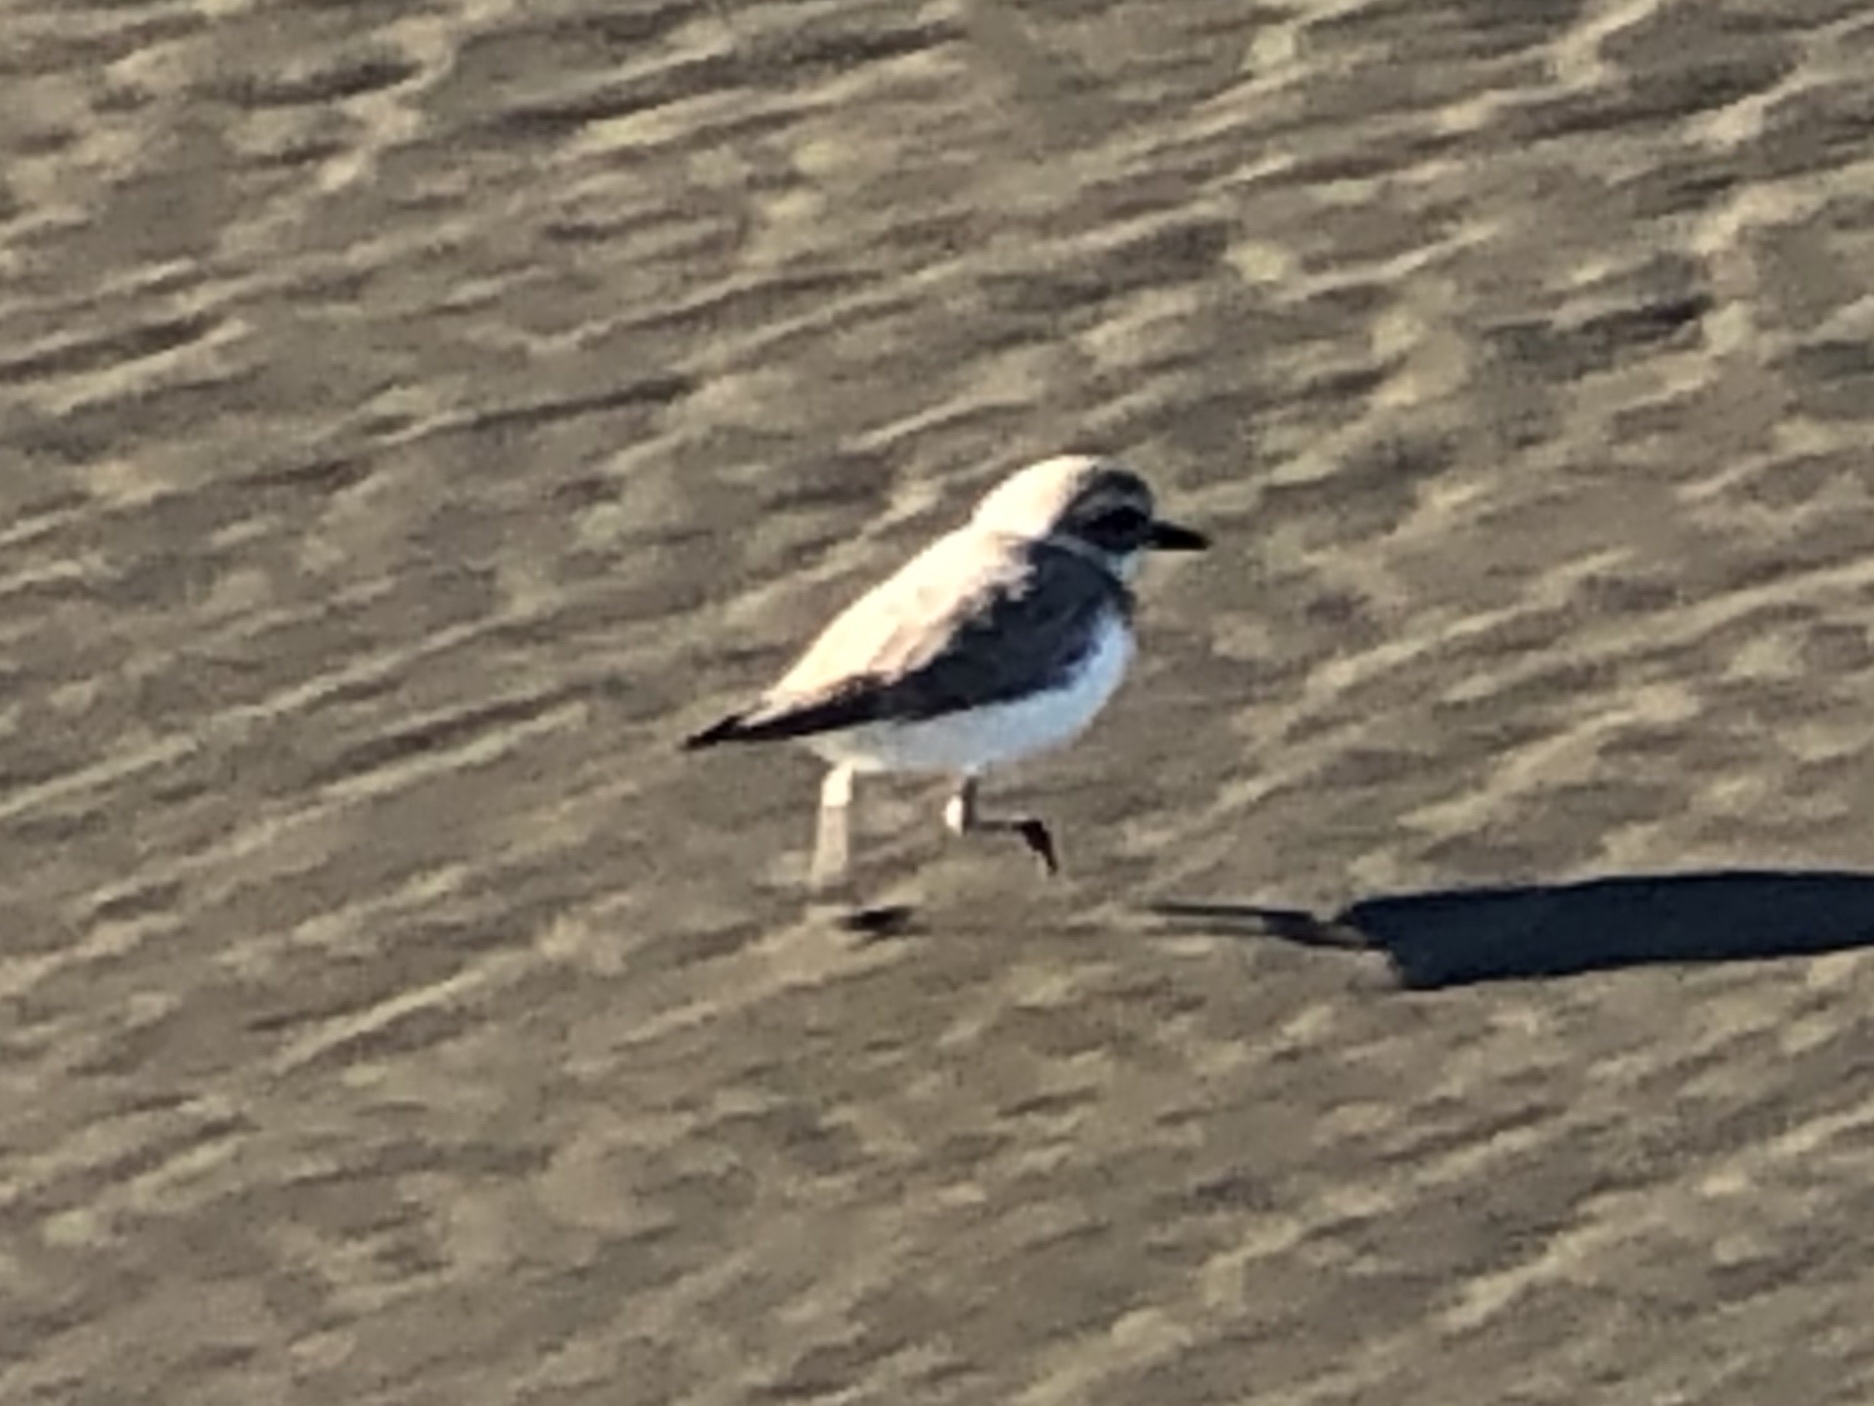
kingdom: Animalia
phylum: Chordata
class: Aves
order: Charadriiformes
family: Charadriidae
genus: Anarhynchus
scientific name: Anarhynchus
